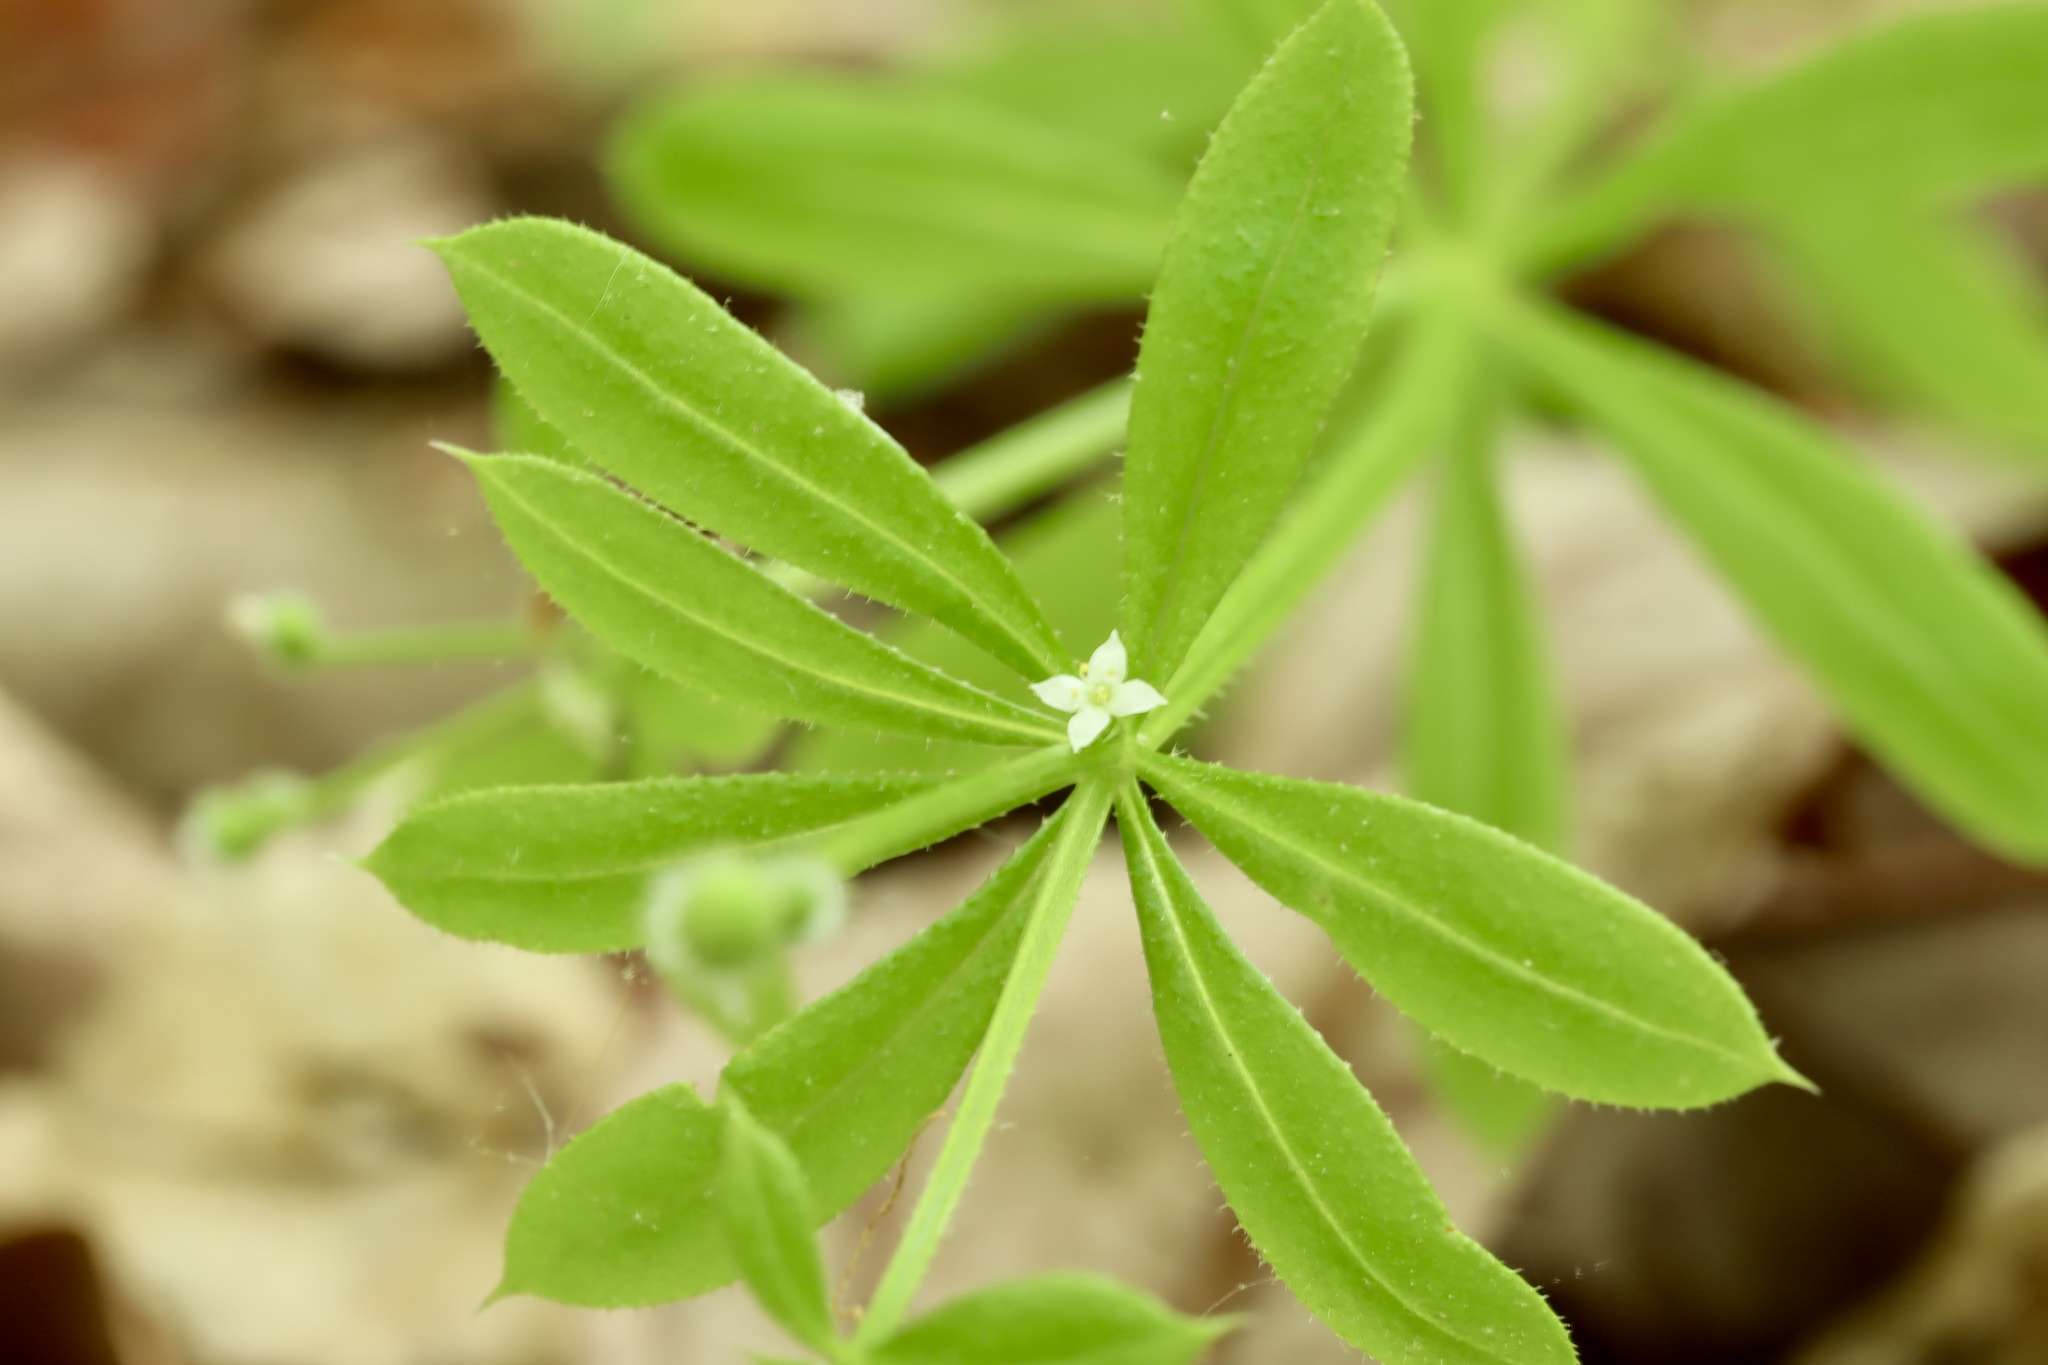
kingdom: Plantae
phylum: Tracheophyta
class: Magnoliopsida
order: Gentianales
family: Rubiaceae
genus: Galium
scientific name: Galium aparine
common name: Cleavers
